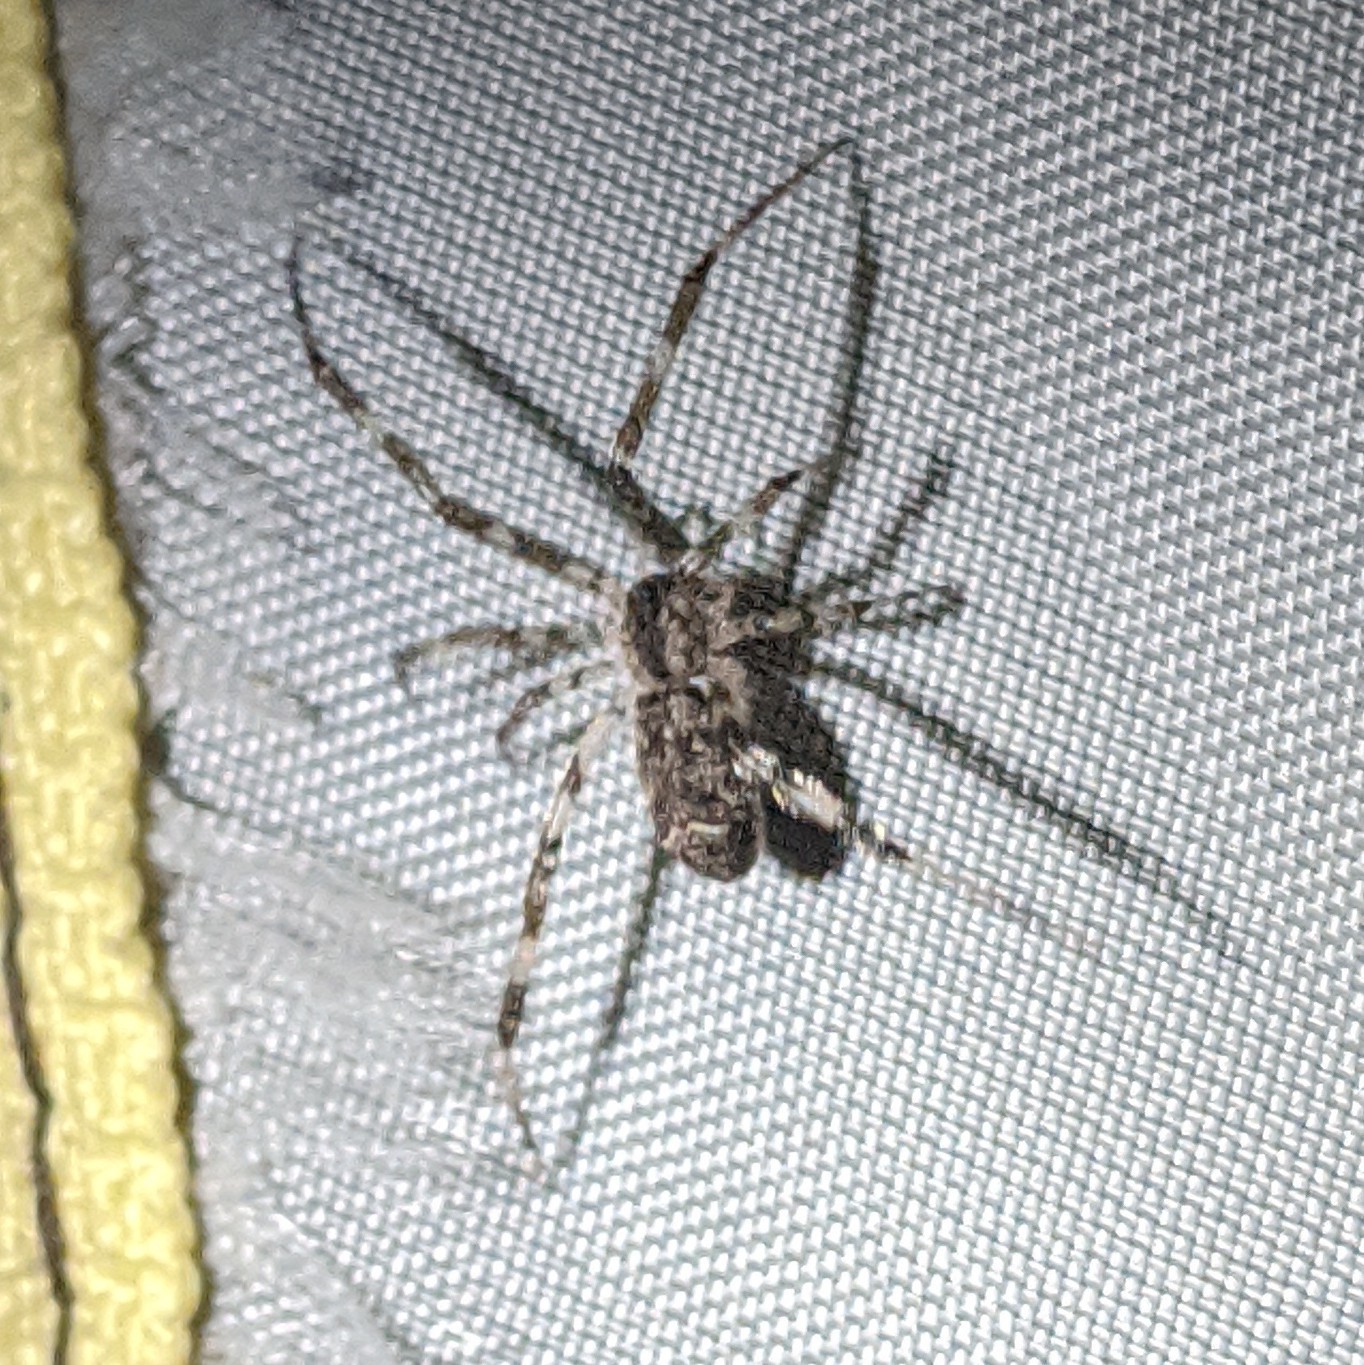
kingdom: Animalia
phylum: Arthropoda
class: Arachnida
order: Araneae
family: Theridiidae
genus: Episinus
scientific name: Episinus maculipes
